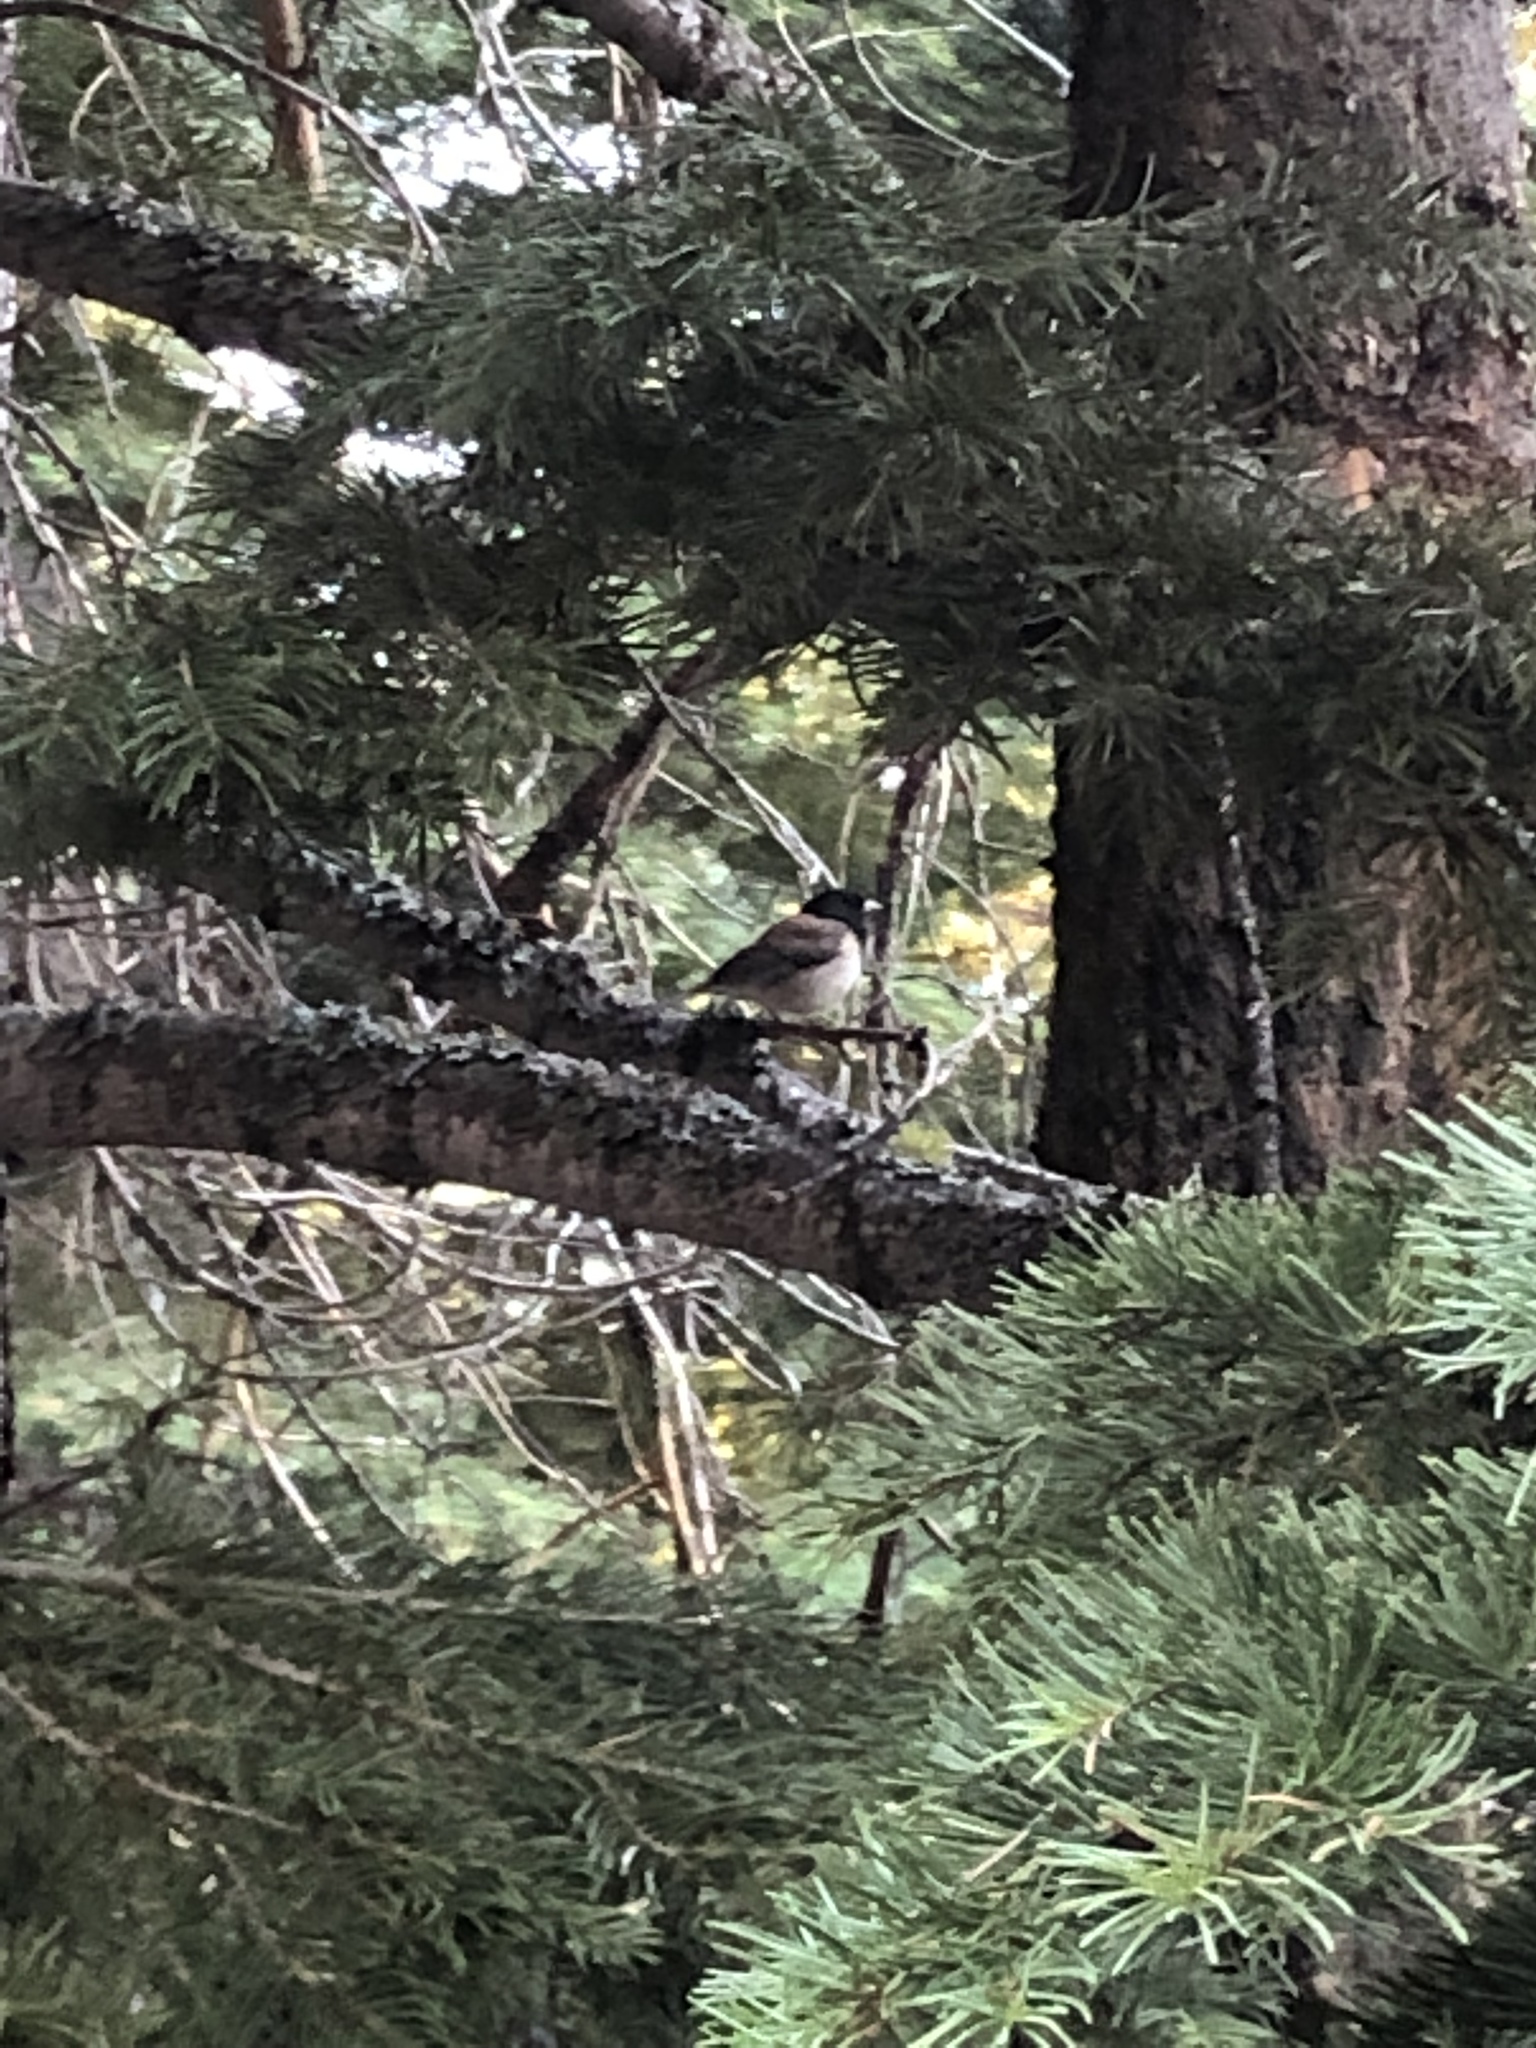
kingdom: Animalia
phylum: Chordata
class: Aves
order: Passeriformes
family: Passerellidae
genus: Junco
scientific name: Junco hyemalis
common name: Dark-eyed junco
